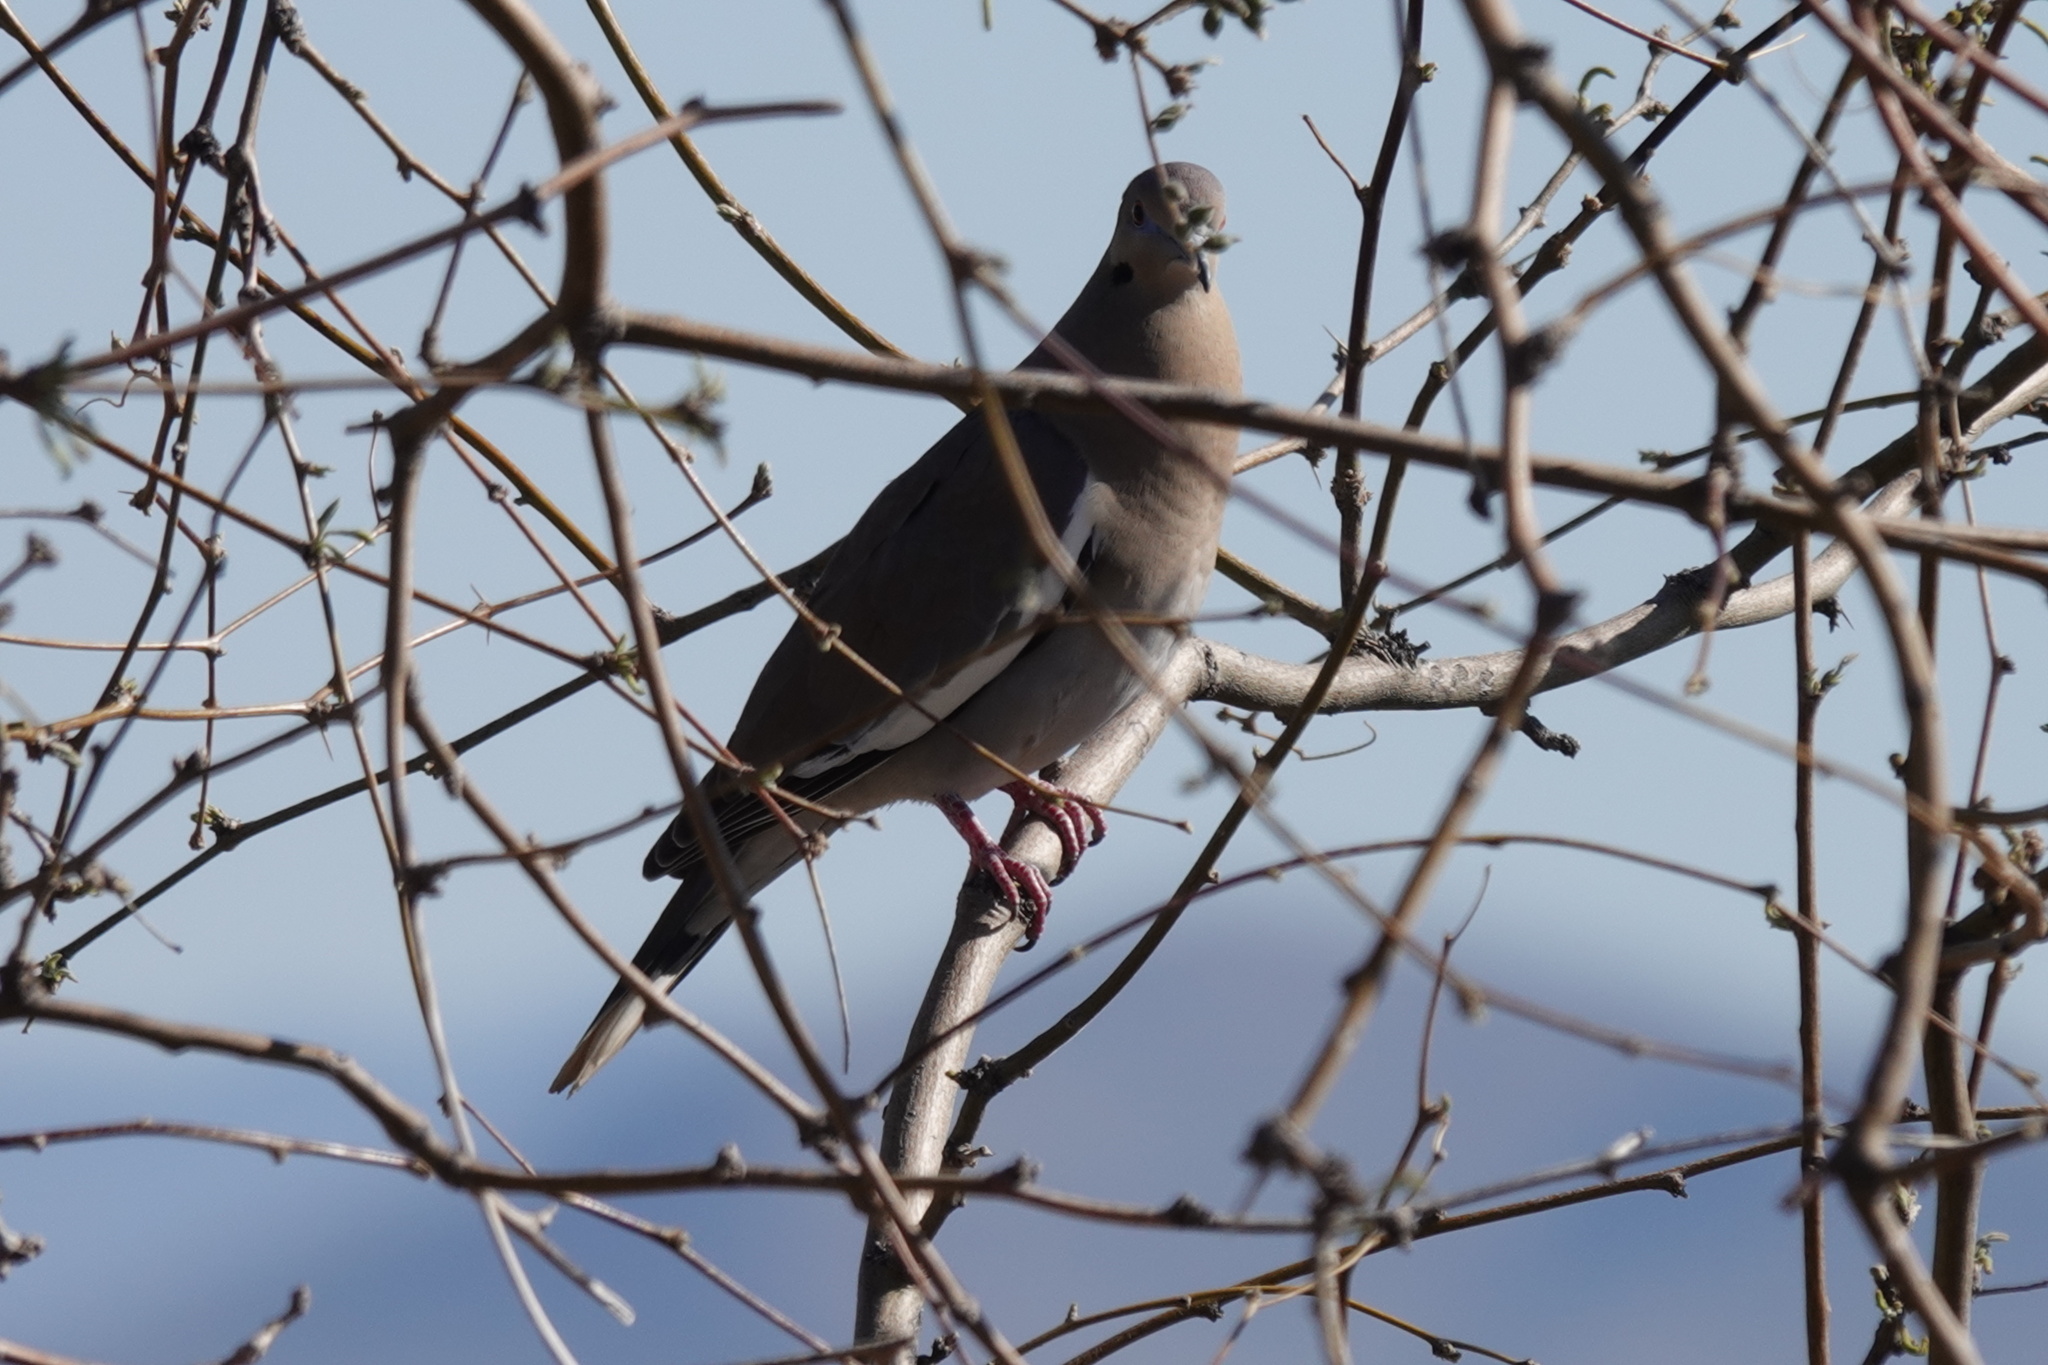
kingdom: Animalia
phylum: Chordata
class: Aves
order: Columbiformes
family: Columbidae
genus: Zenaida
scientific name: Zenaida asiatica
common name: White-winged dove
